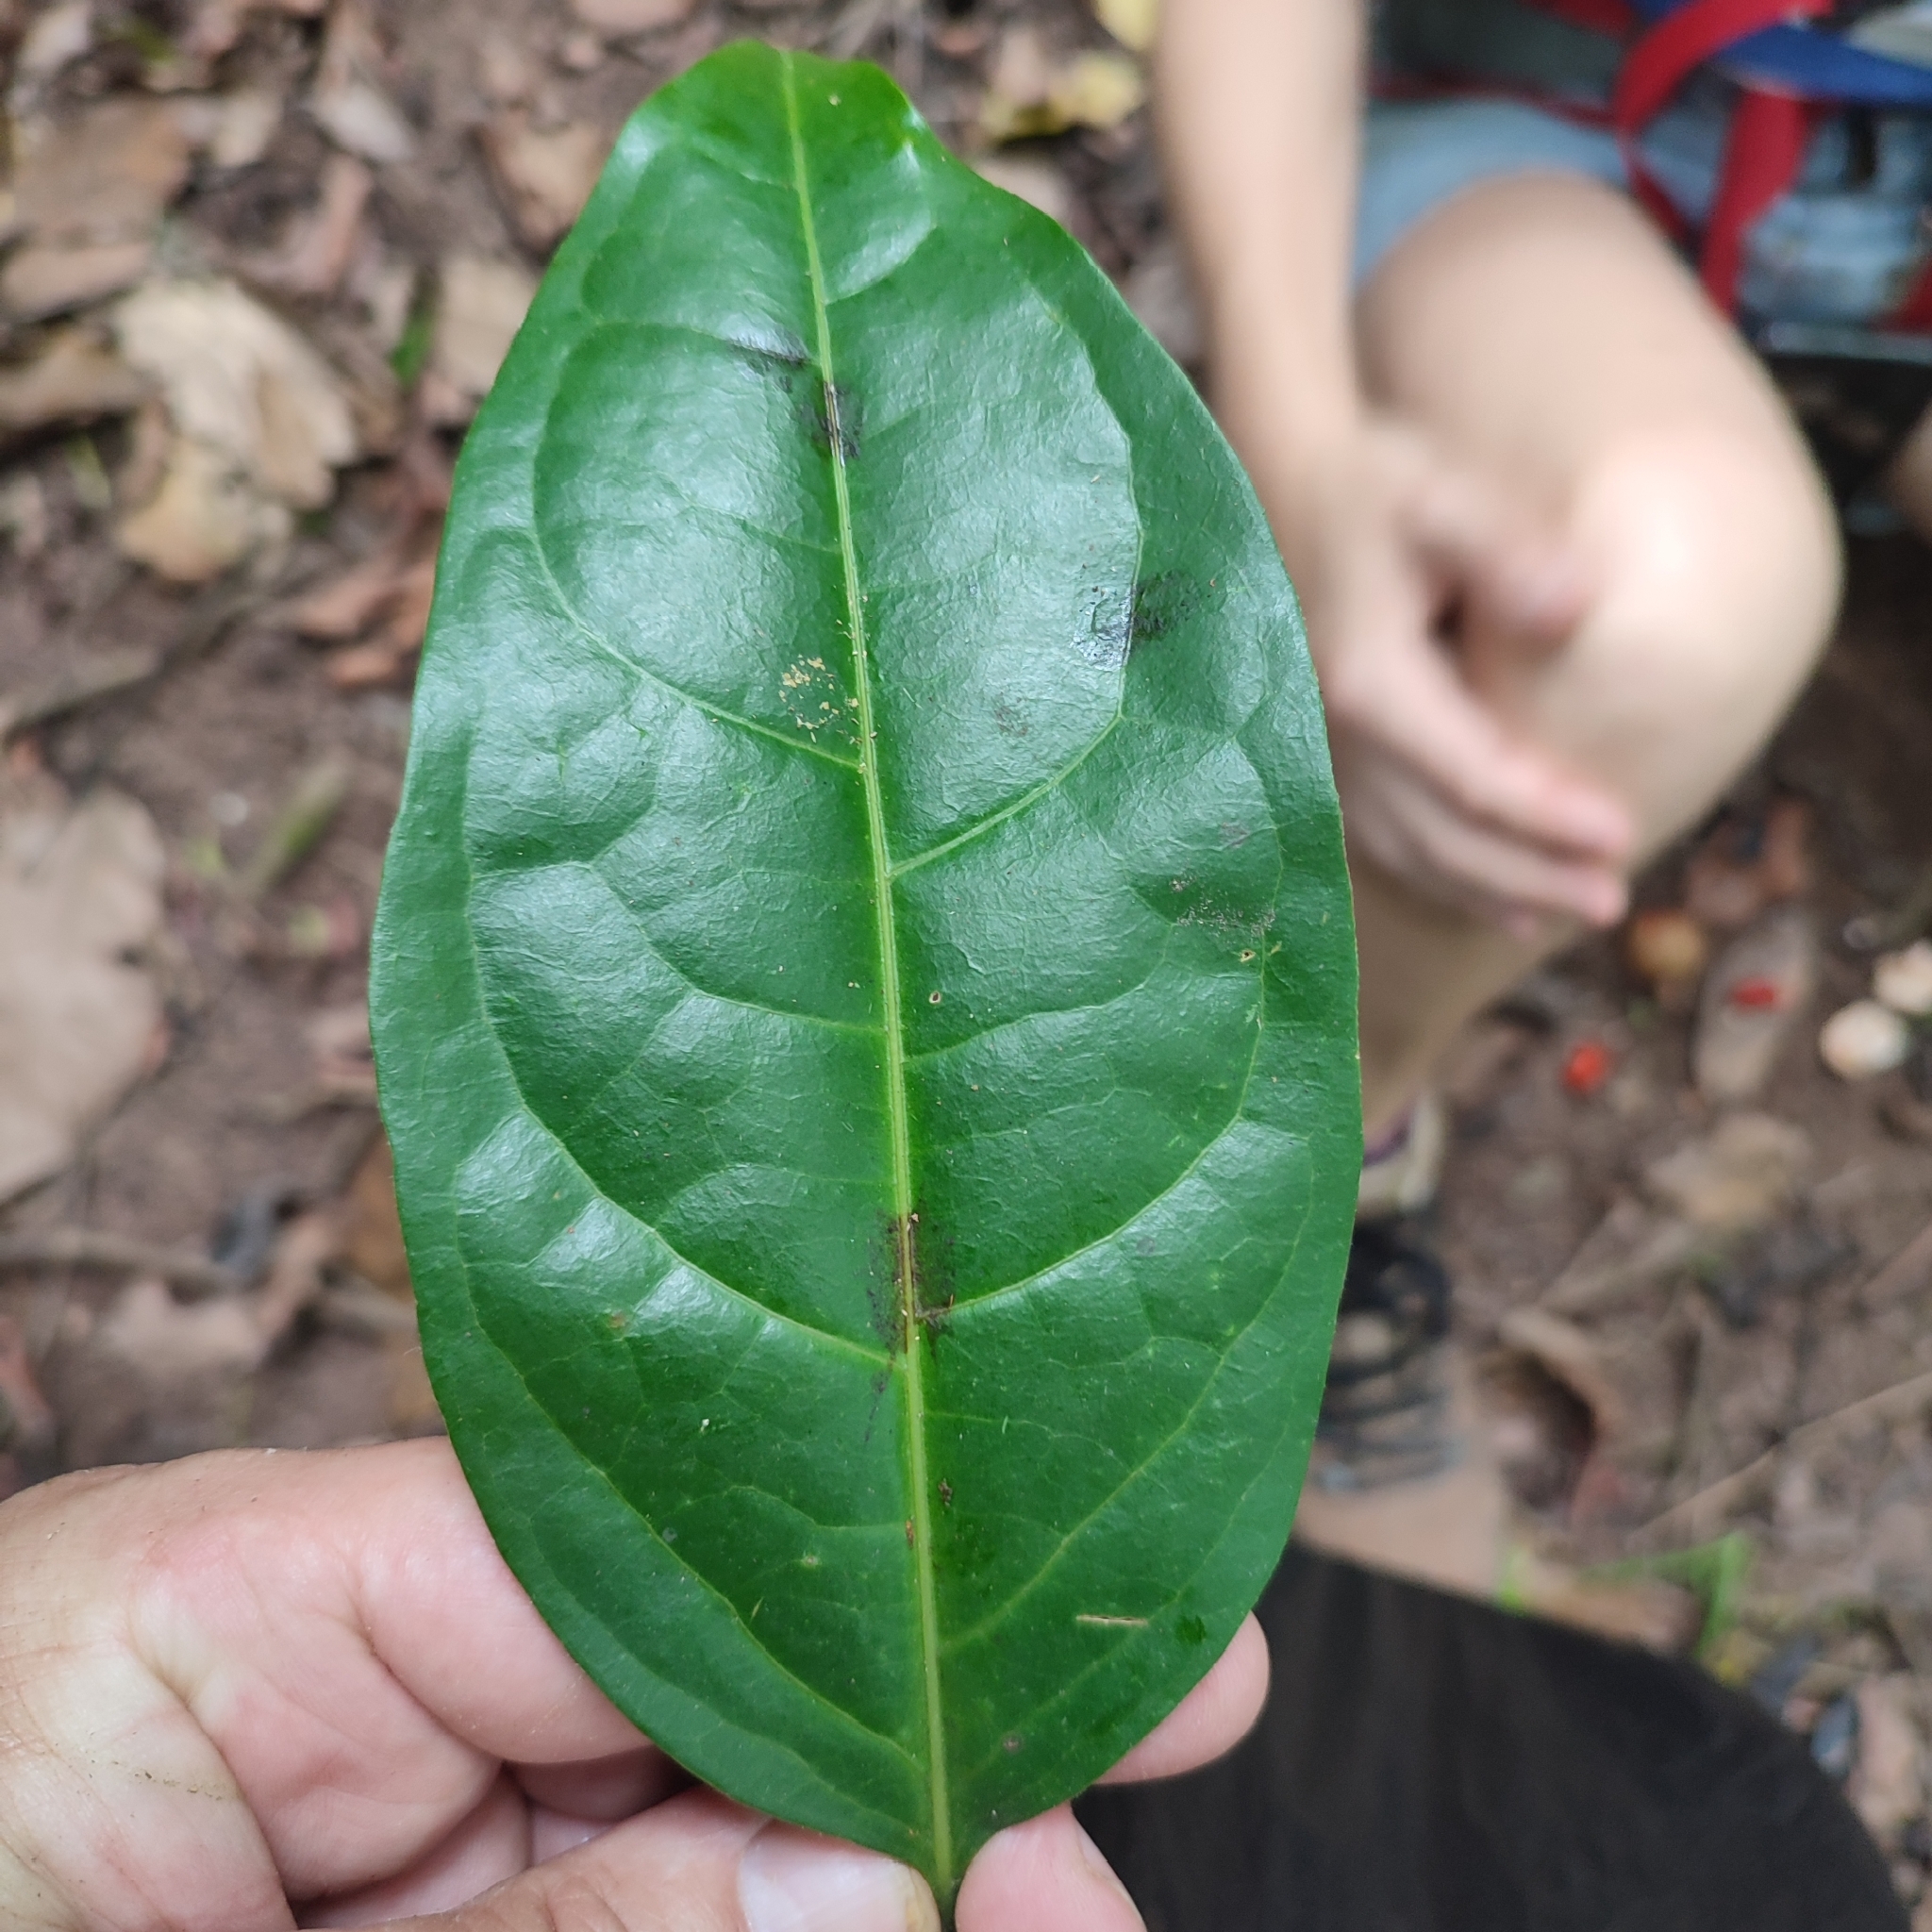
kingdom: Plantae
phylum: Tracheophyta
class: Magnoliopsida
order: Malpighiales
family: Malpighiaceae
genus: Malpighia
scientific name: Malpighia emarginata
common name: Barbados cherry
